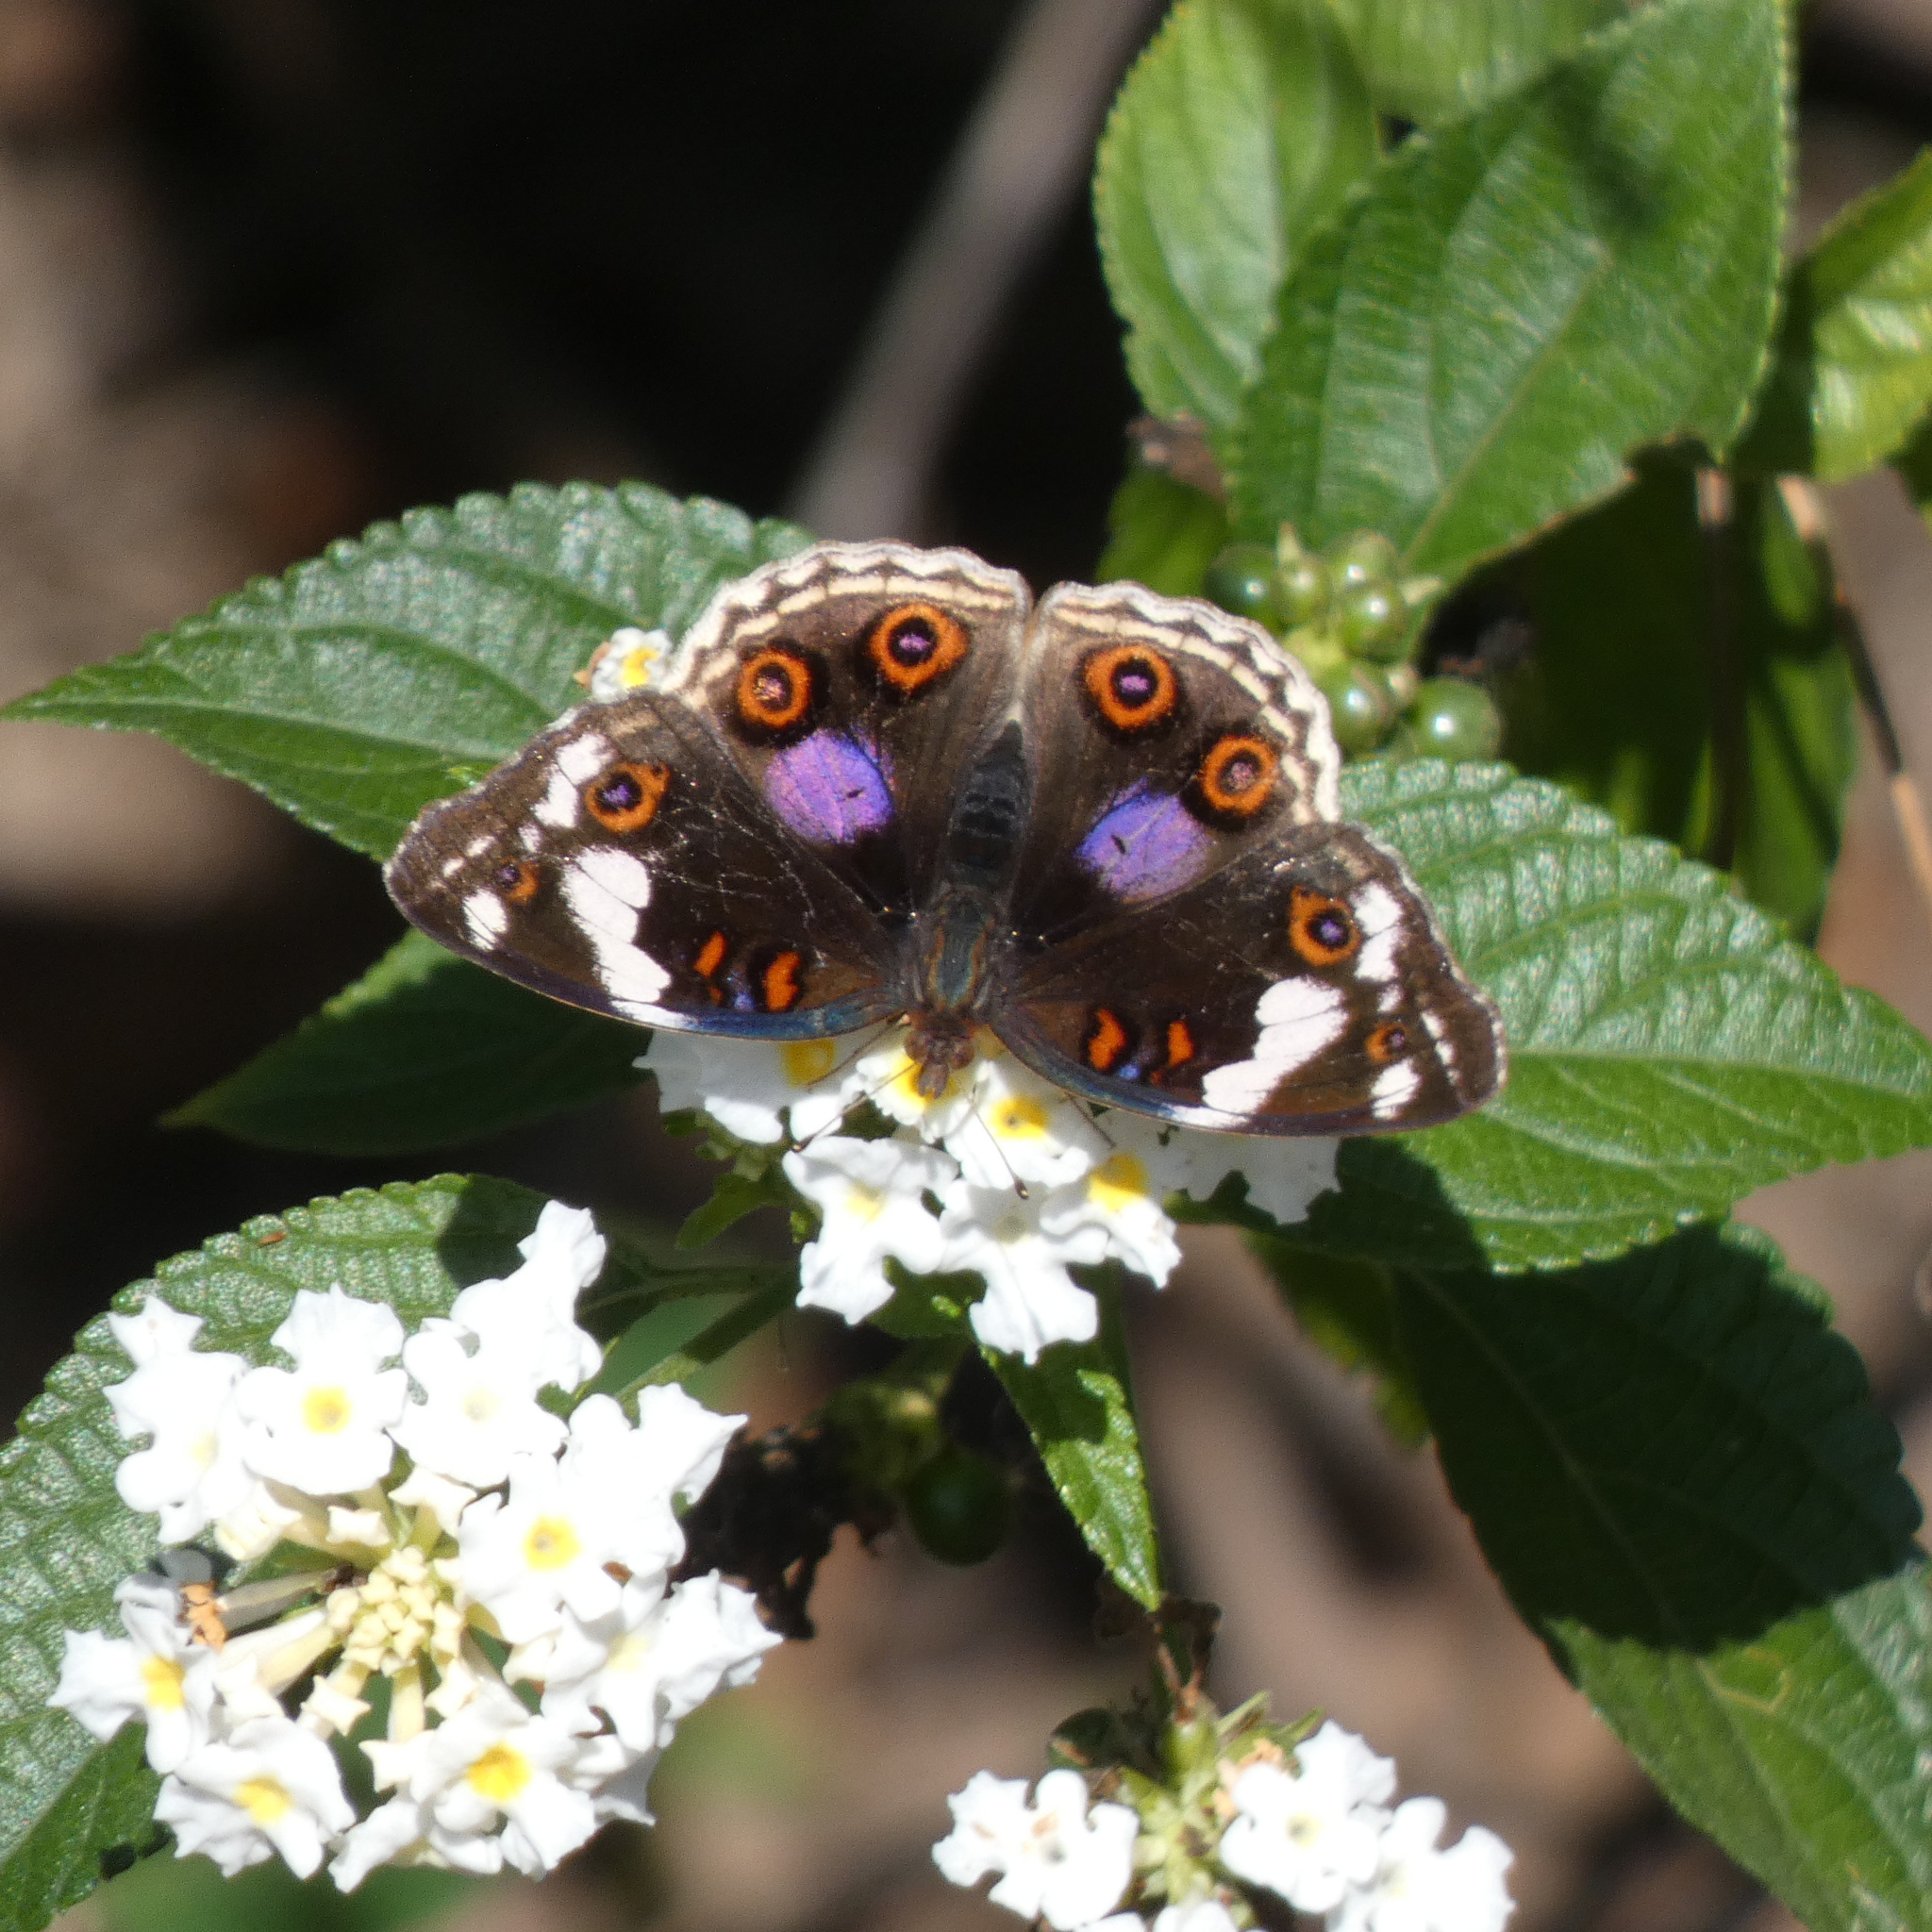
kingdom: Animalia
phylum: Arthropoda
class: Insecta
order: Lepidoptera
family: Nymphalidae
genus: Junonia
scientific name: Junonia oenone
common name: Dark blue pansy
